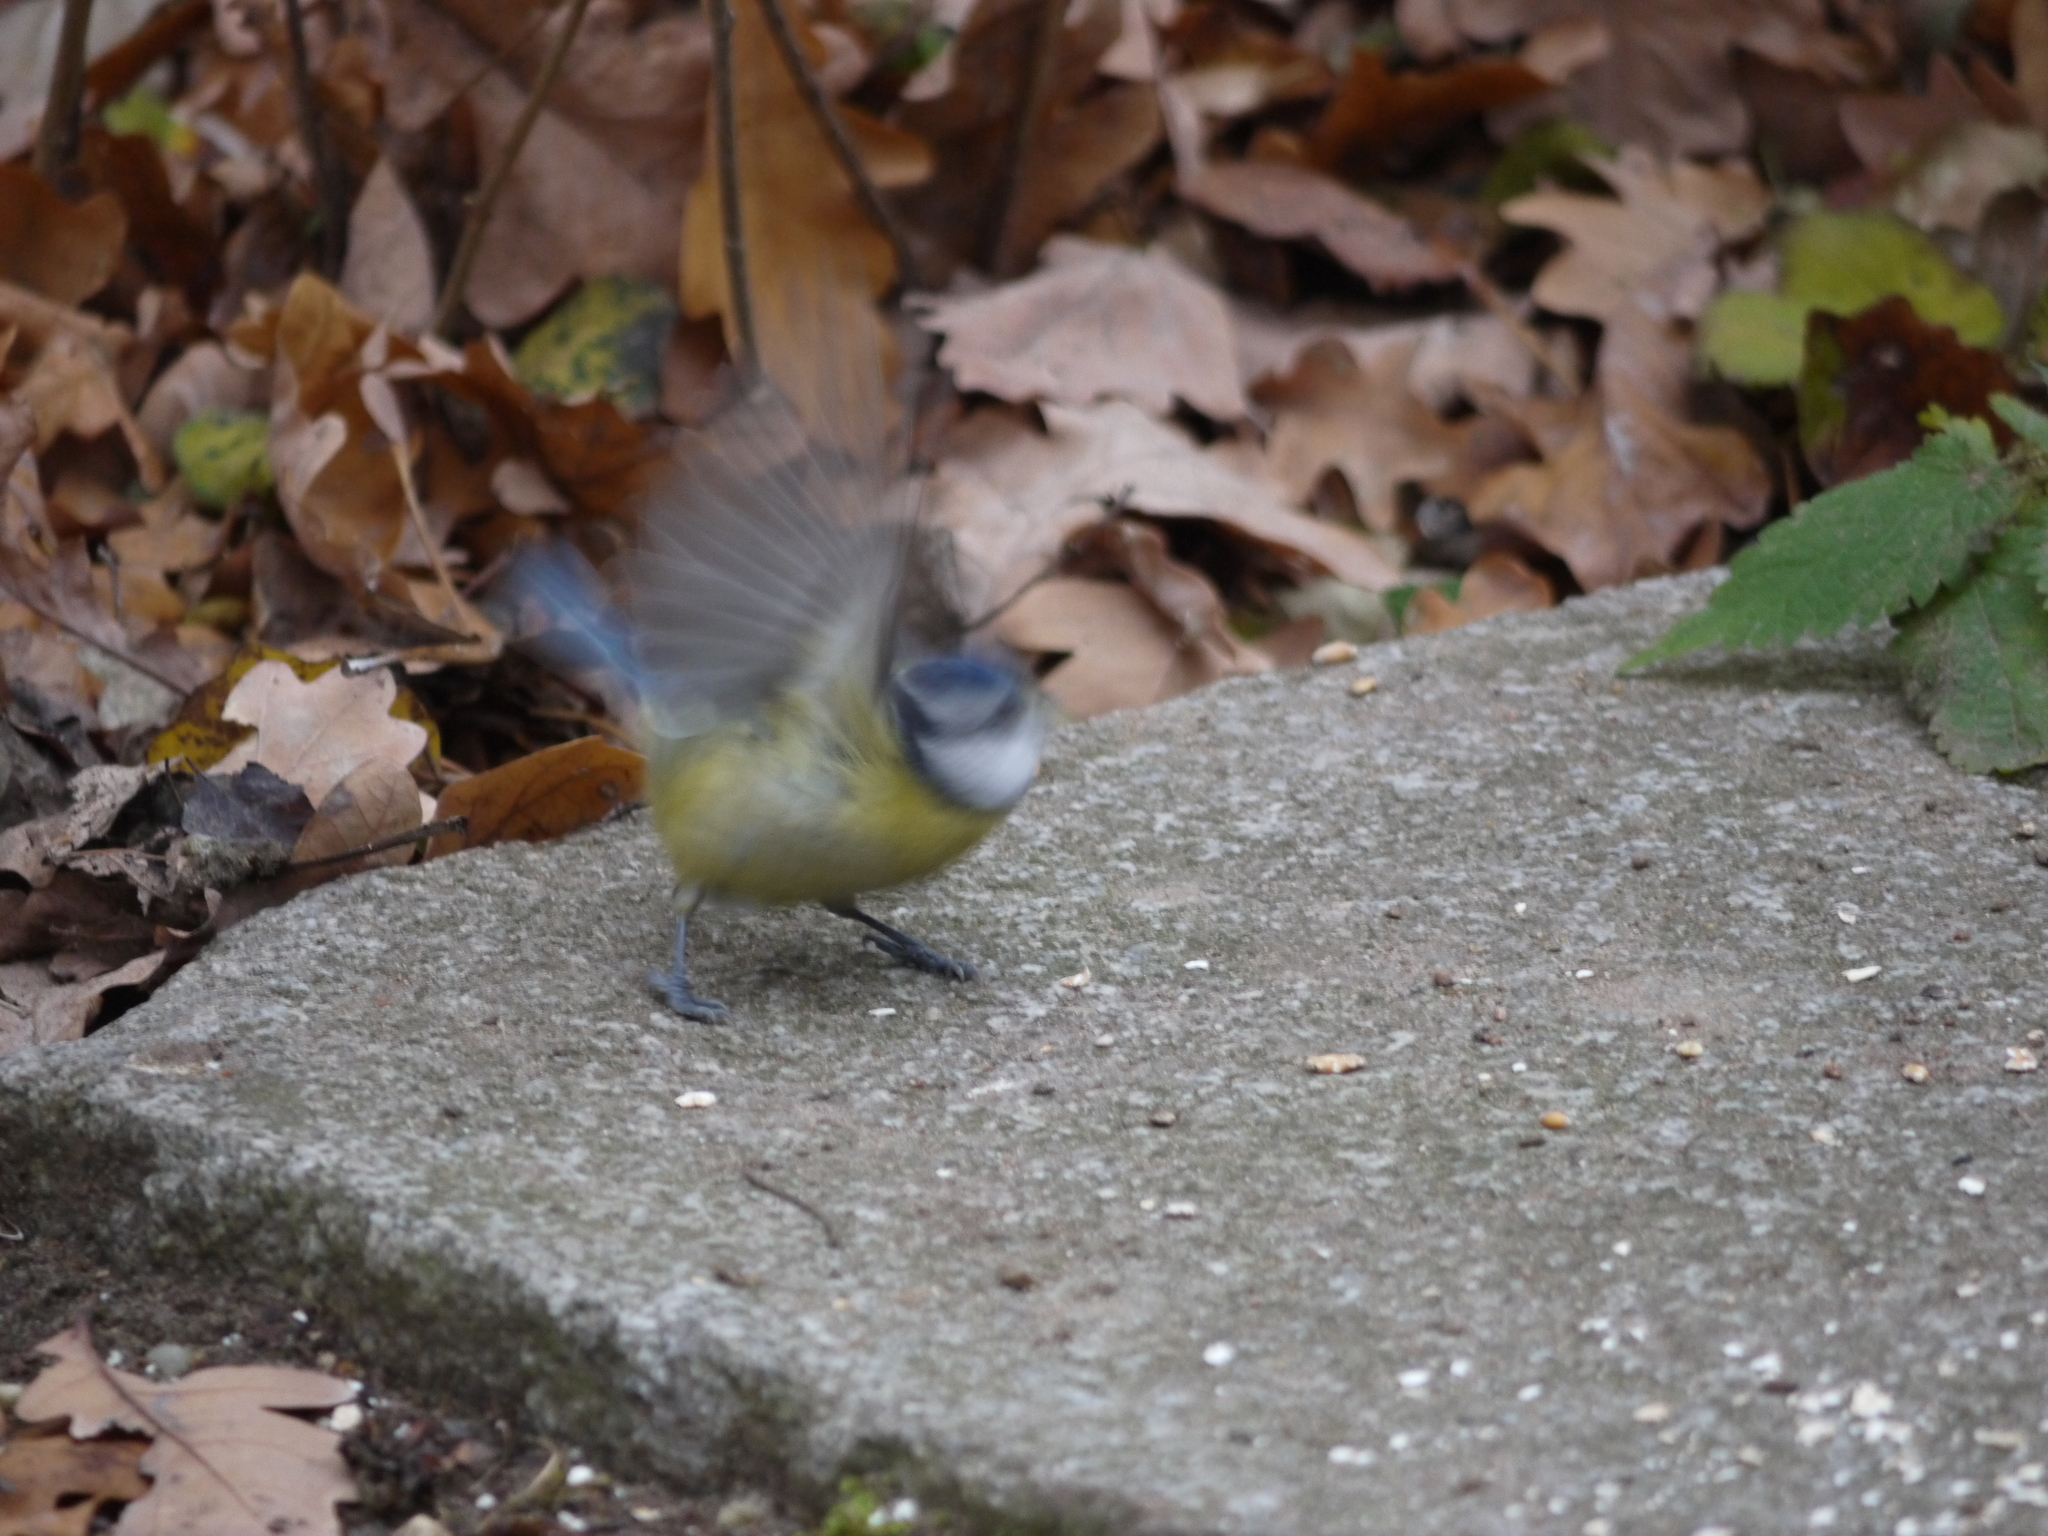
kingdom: Animalia
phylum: Chordata
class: Aves
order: Passeriformes
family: Paridae
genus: Cyanistes
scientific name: Cyanistes caeruleus
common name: Eurasian blue tit
